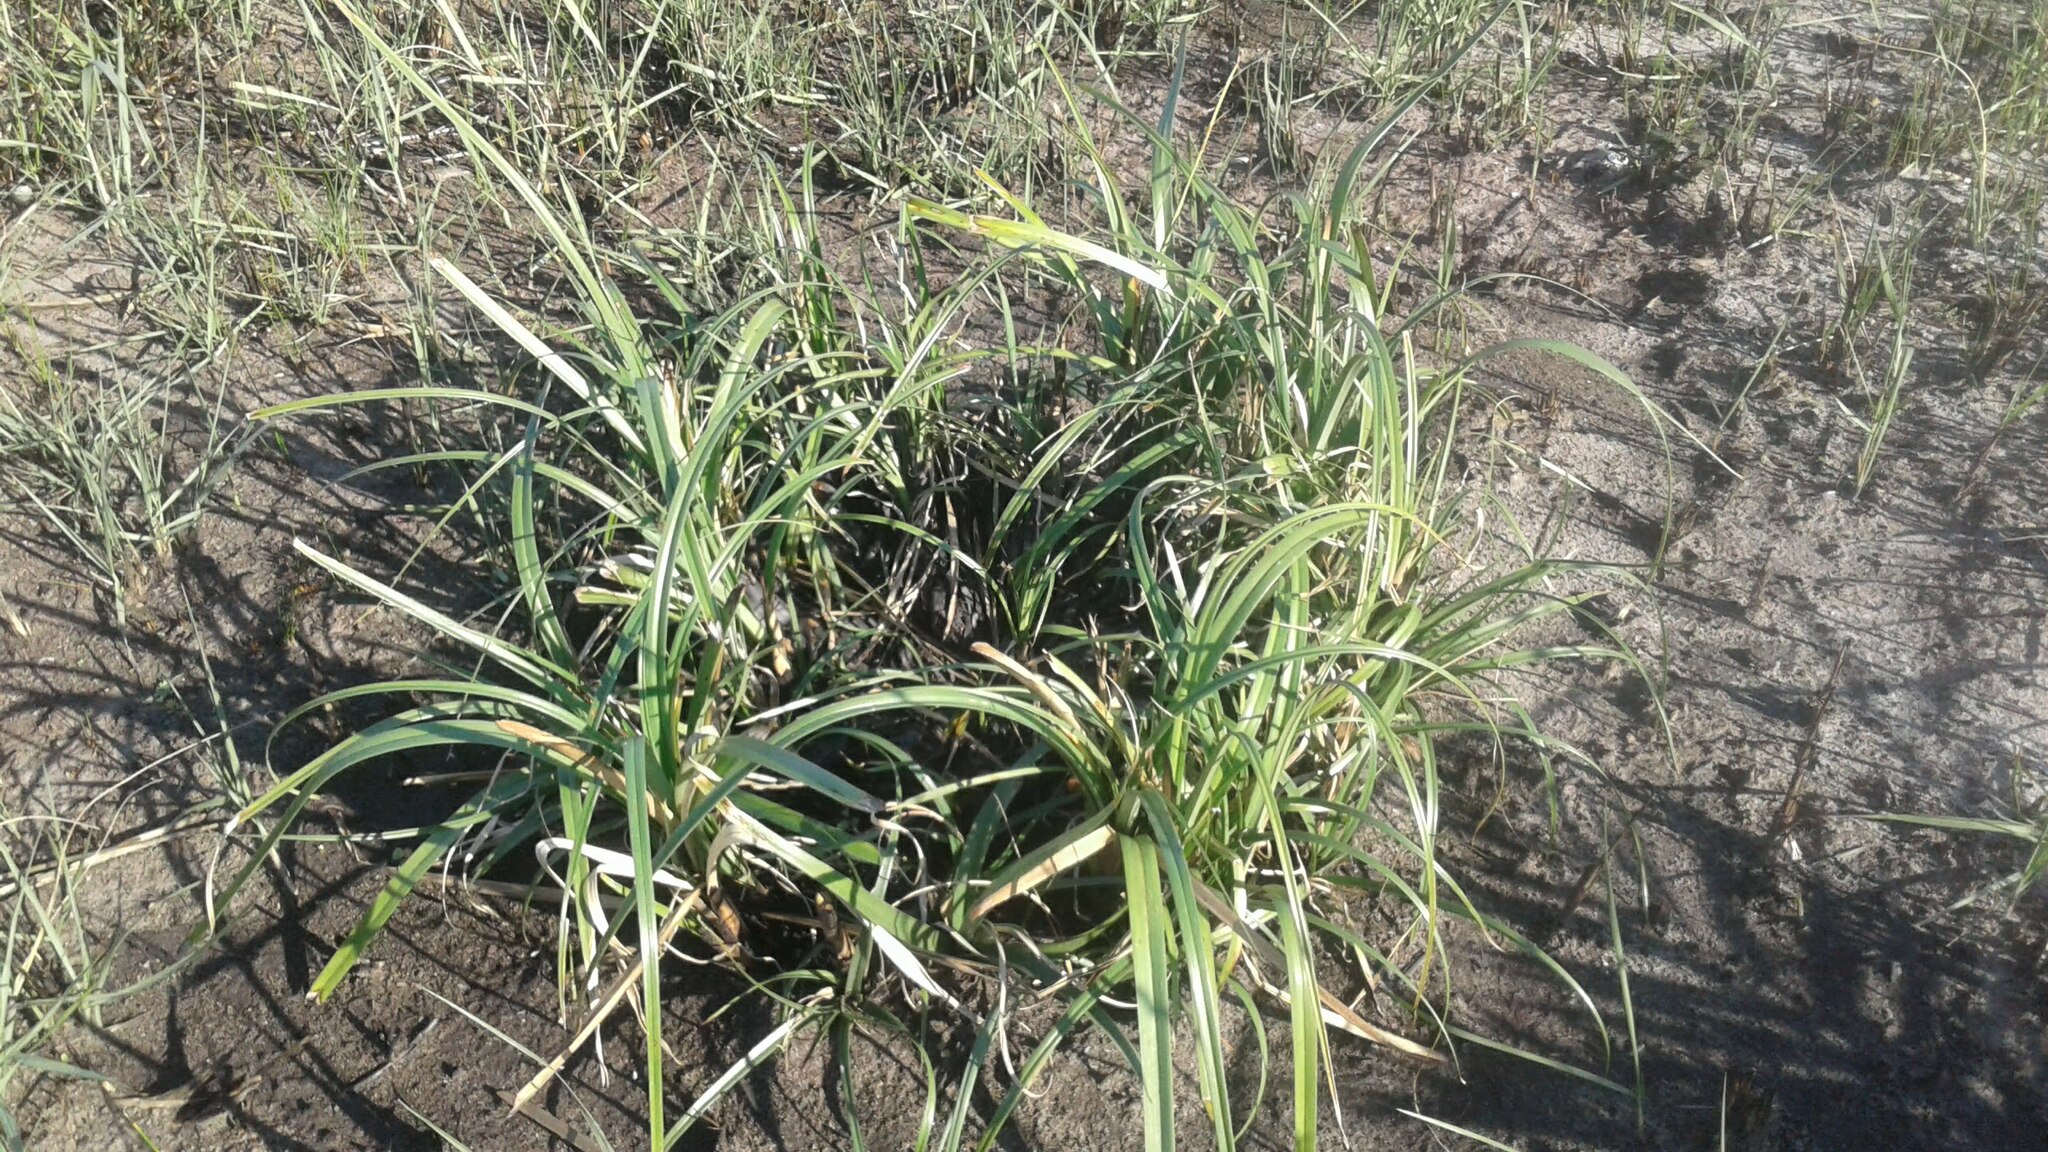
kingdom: Plantae
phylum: Tracheophyta
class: Liliopsida
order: Poales
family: Cyperaceae
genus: Cyperus
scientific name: Cyperus thunbergii
